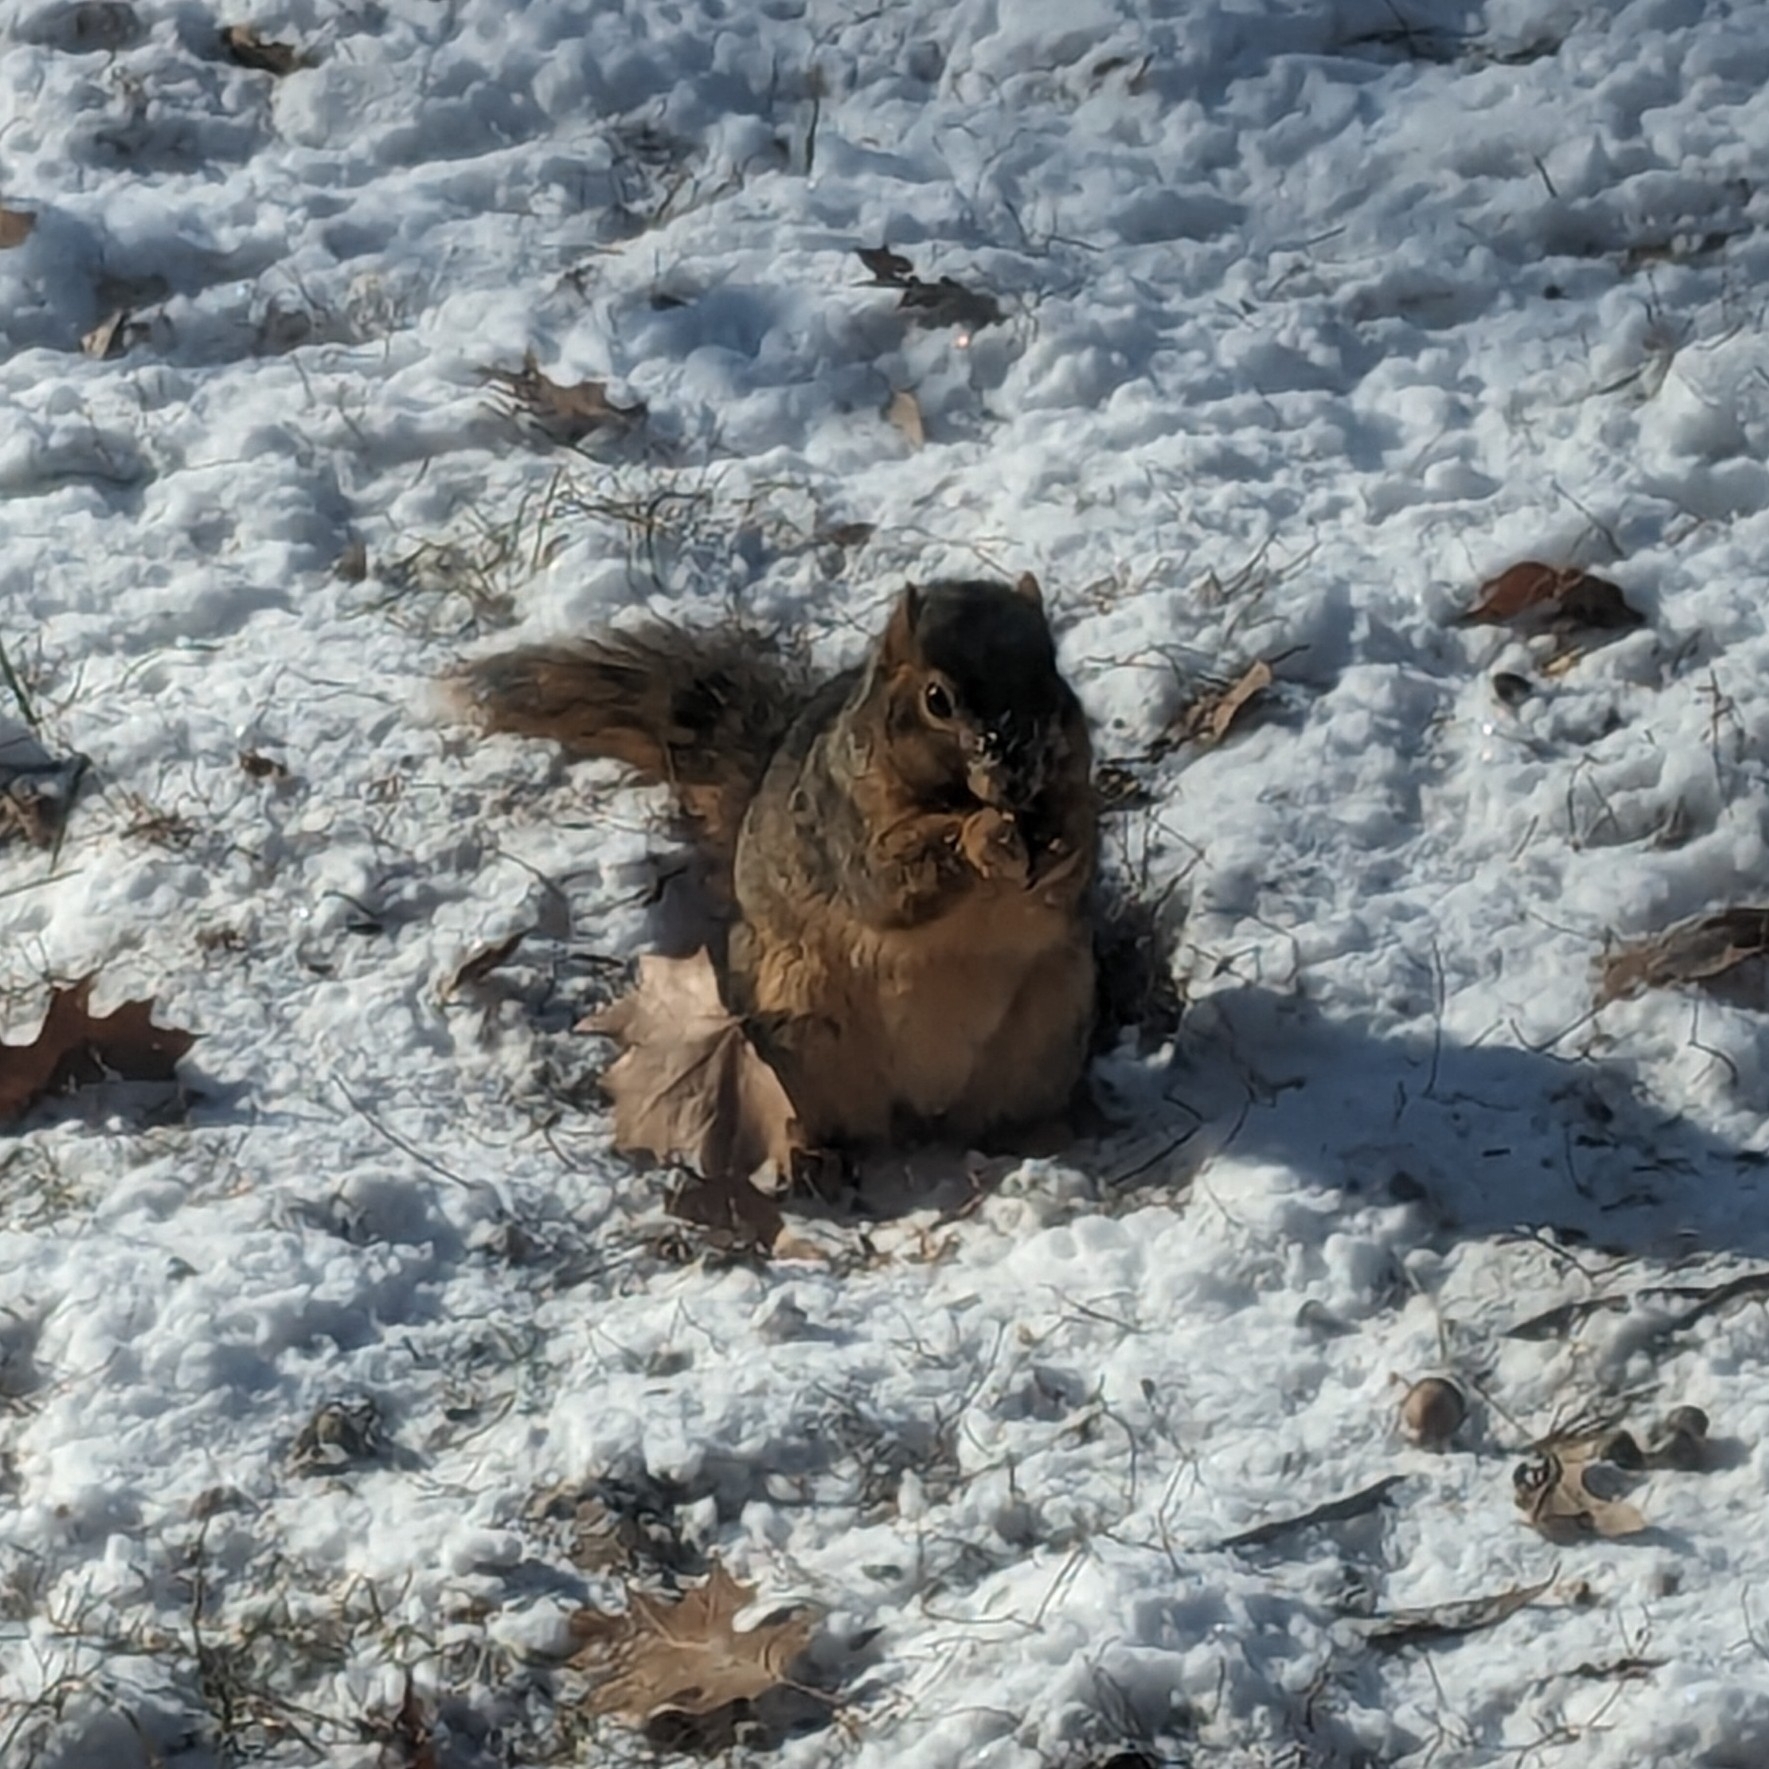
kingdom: Animalia
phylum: Chordata
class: Mammalia
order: Rodentia
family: Sciuridae
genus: Sciurus
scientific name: Sciurus niger
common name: Fox squirrel
